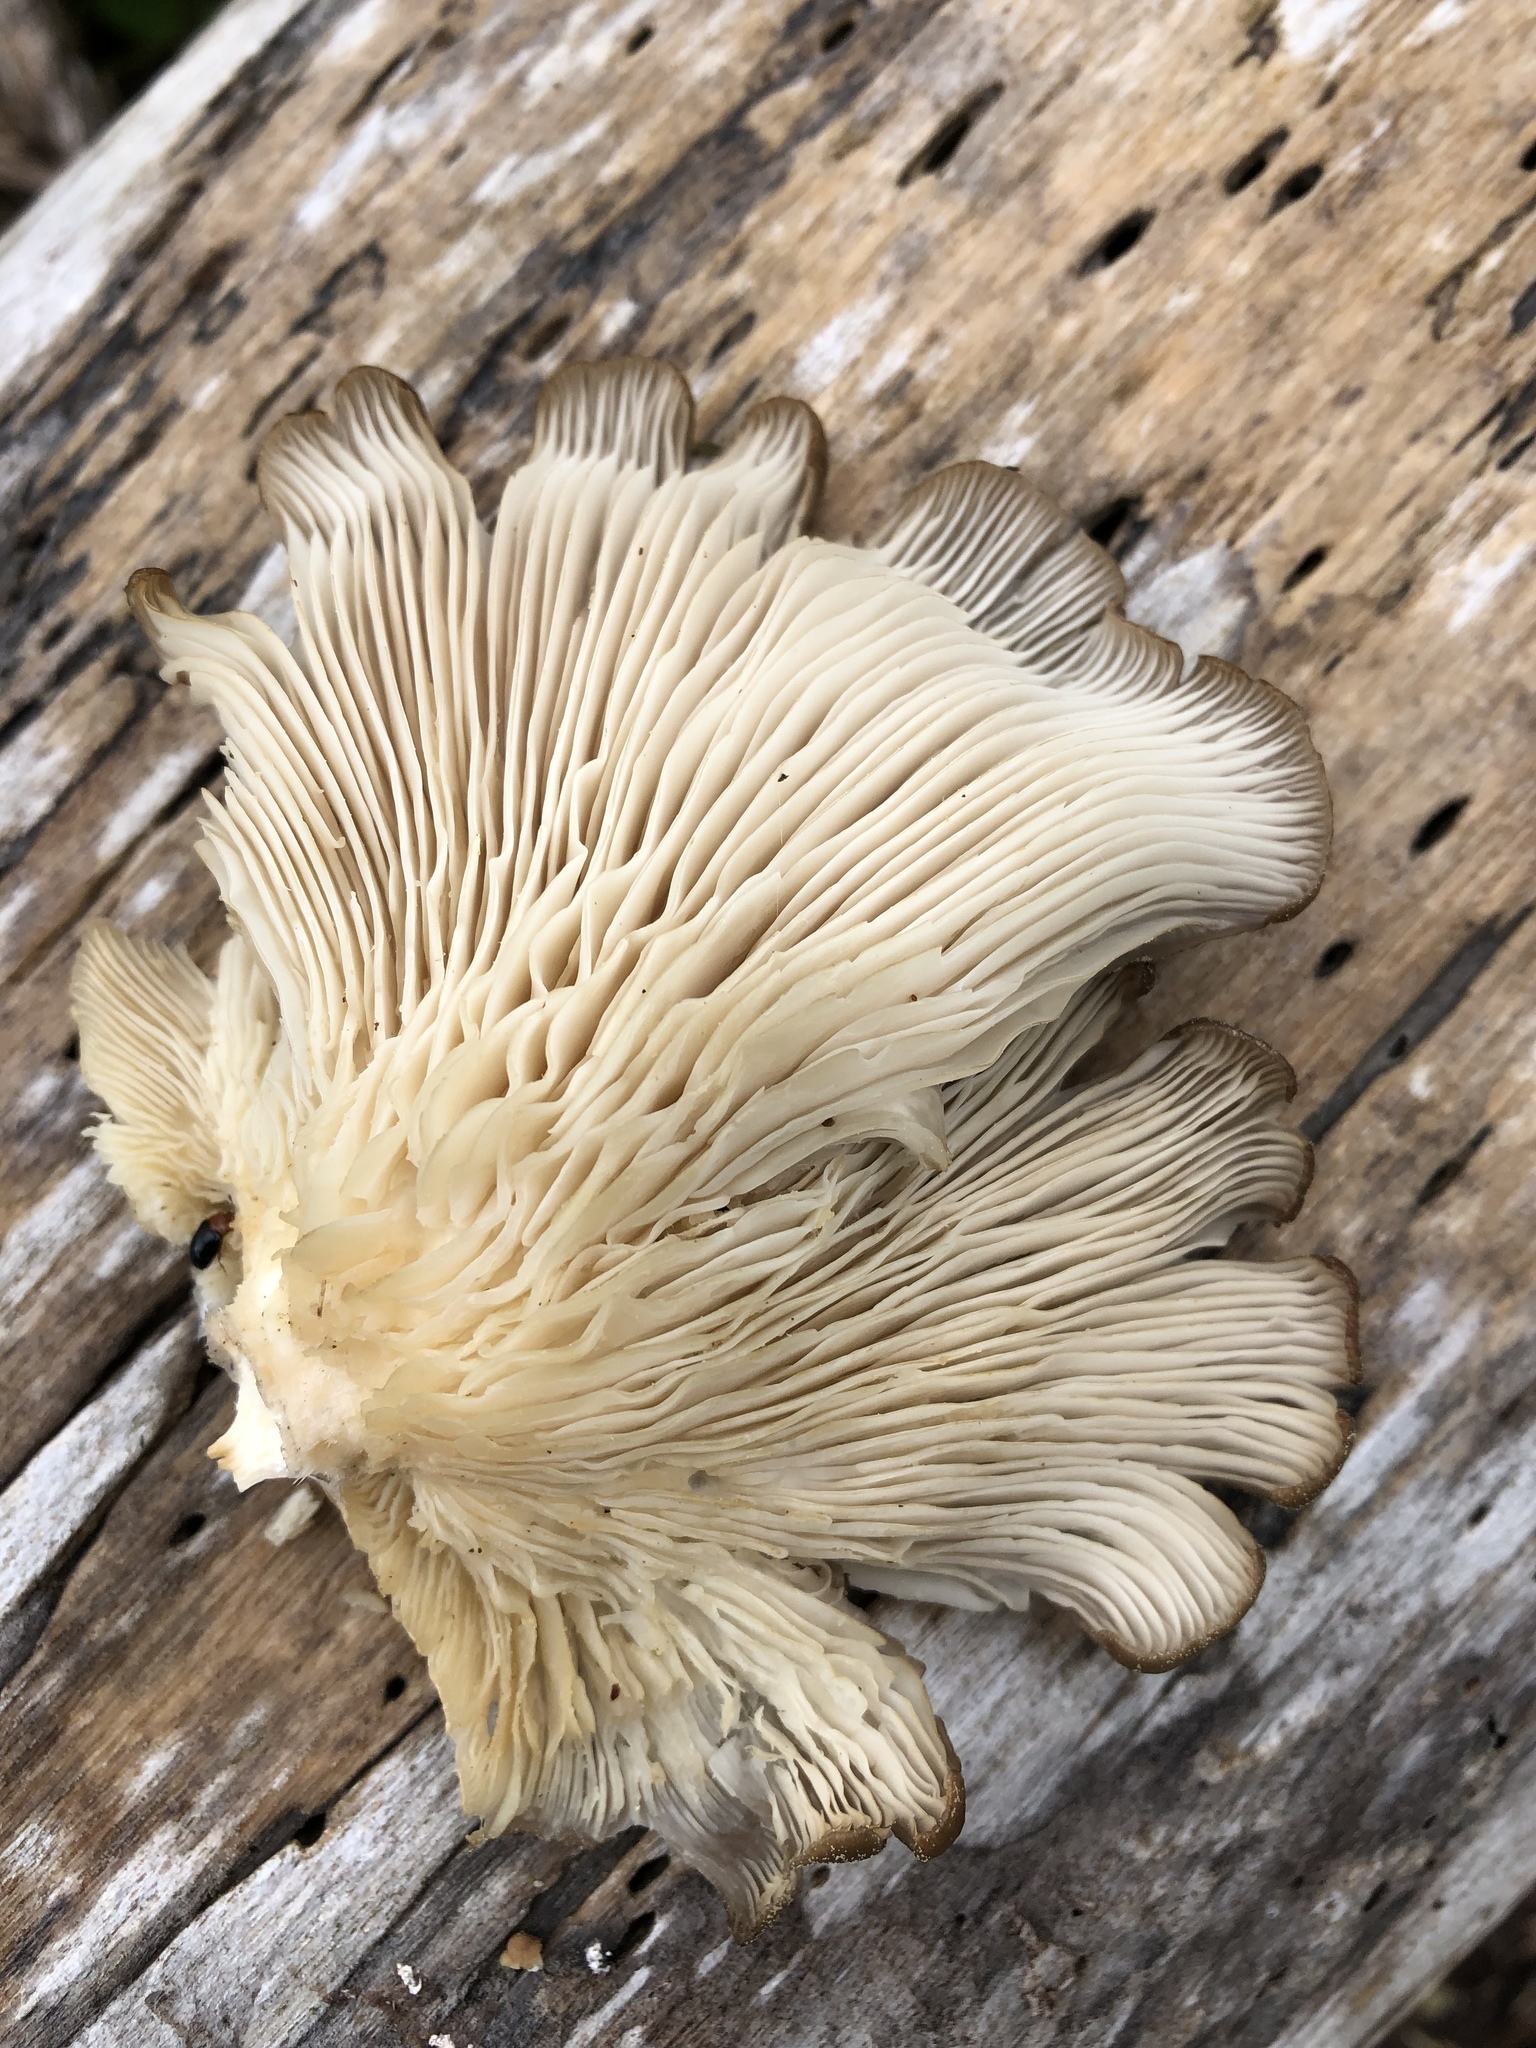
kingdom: Fungi
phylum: Basidiomycota
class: Agaricomycetes
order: Agaricales
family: Pleurotaceae
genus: Pleurotus
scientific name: Pleurotus ostreatus
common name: Oyster mushroom
